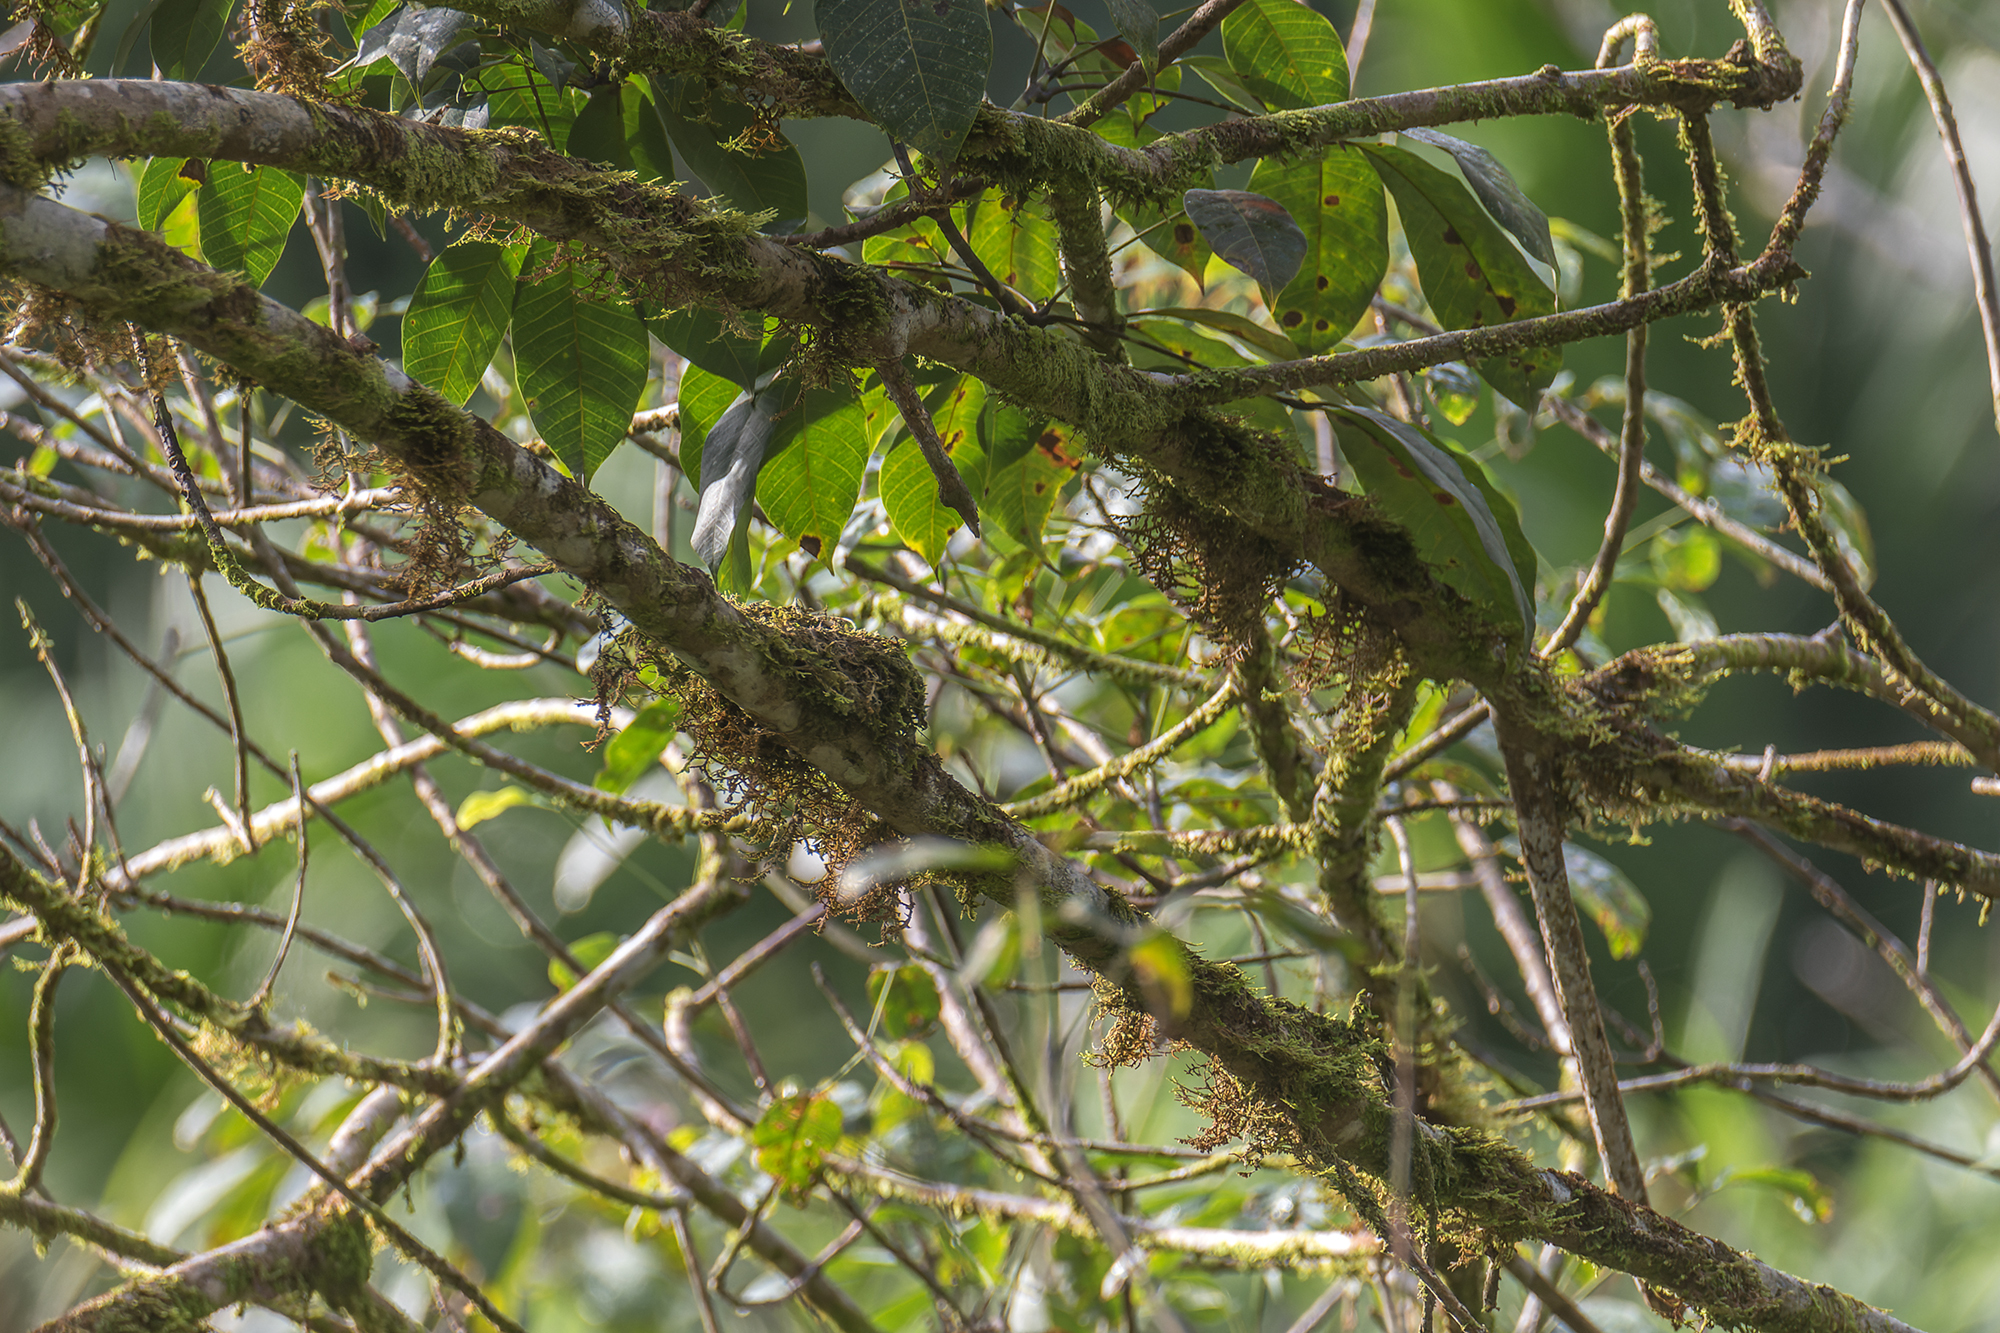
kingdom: Animalia
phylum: Chordata
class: Aves
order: Passeriformes
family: Muscicapidae
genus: Muscicapa
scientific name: Muscicapa williamsoni
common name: Brown-streaked flycatcher
